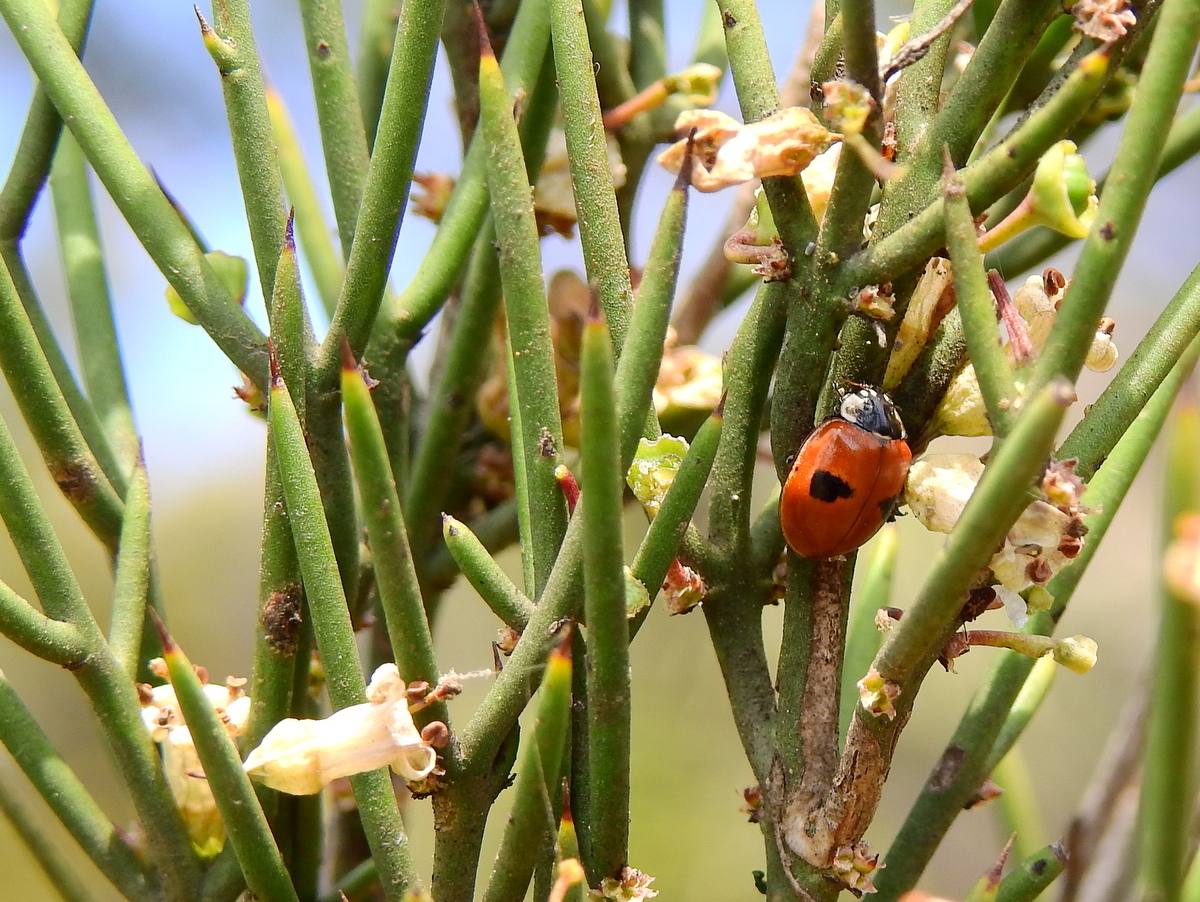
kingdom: Animalia
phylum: Arthropoda
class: Insecta
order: Coleoptera
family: Coccinellidae
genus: Adalia
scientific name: Adalia bipunctata
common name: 2-spot ladybird
